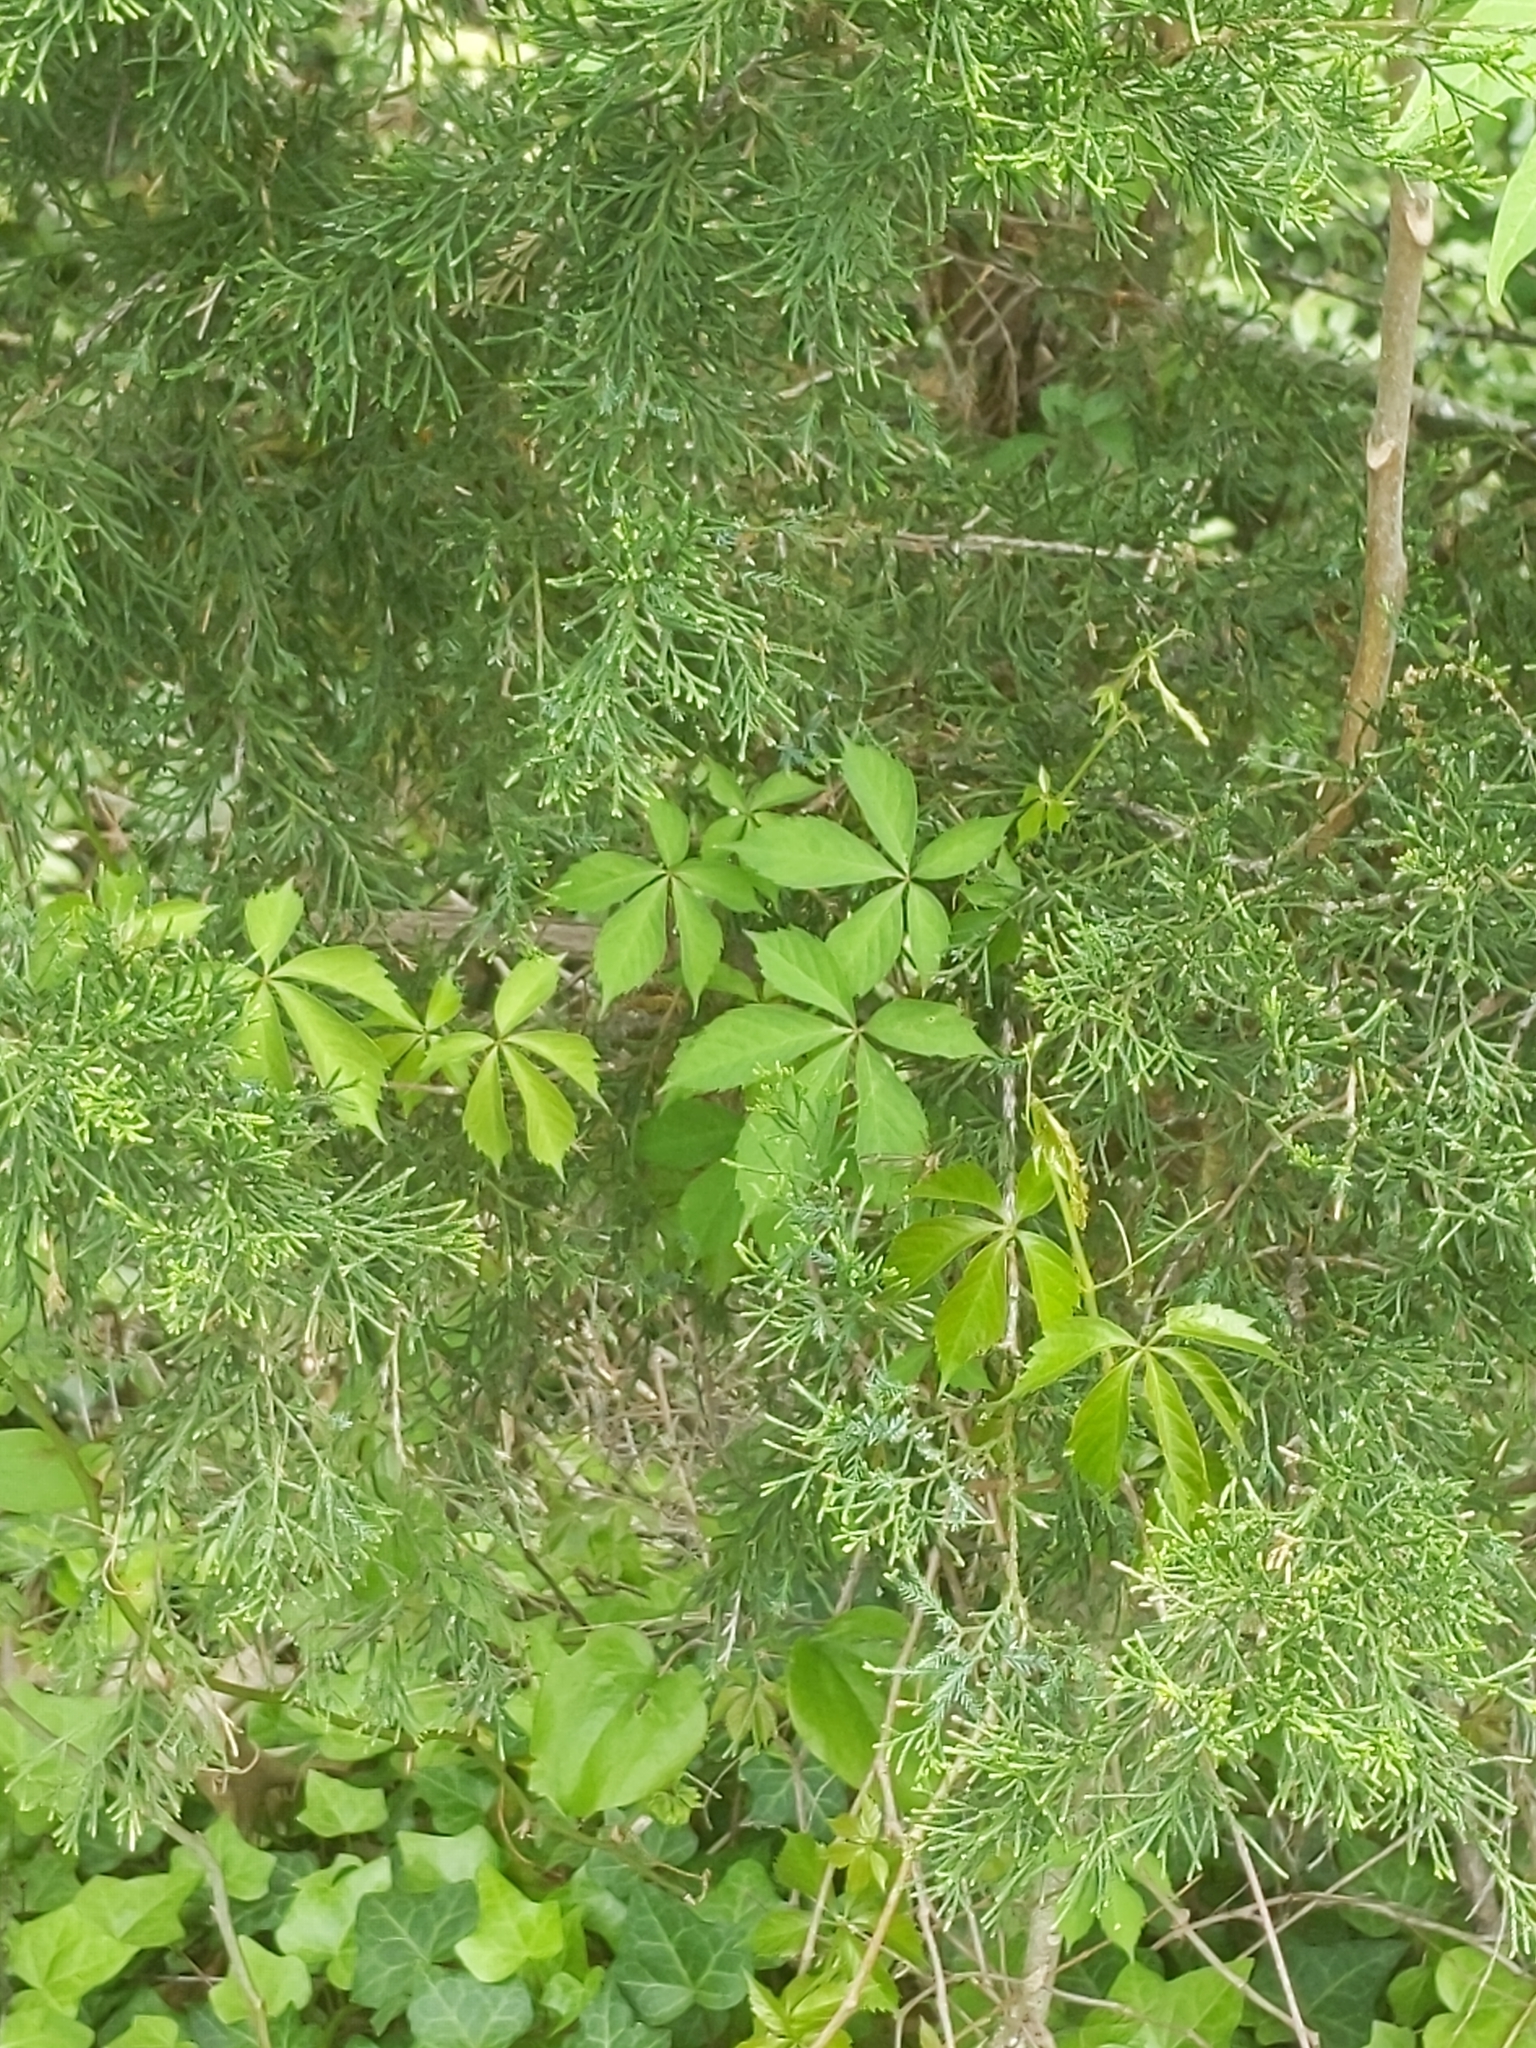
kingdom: Plantae
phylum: Tracheophyta
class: Magnoliopsida
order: Vitales
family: Vitaceae
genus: Parthenocissus
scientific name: Parthenocissus quinquefolia
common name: Virginia-creeper
